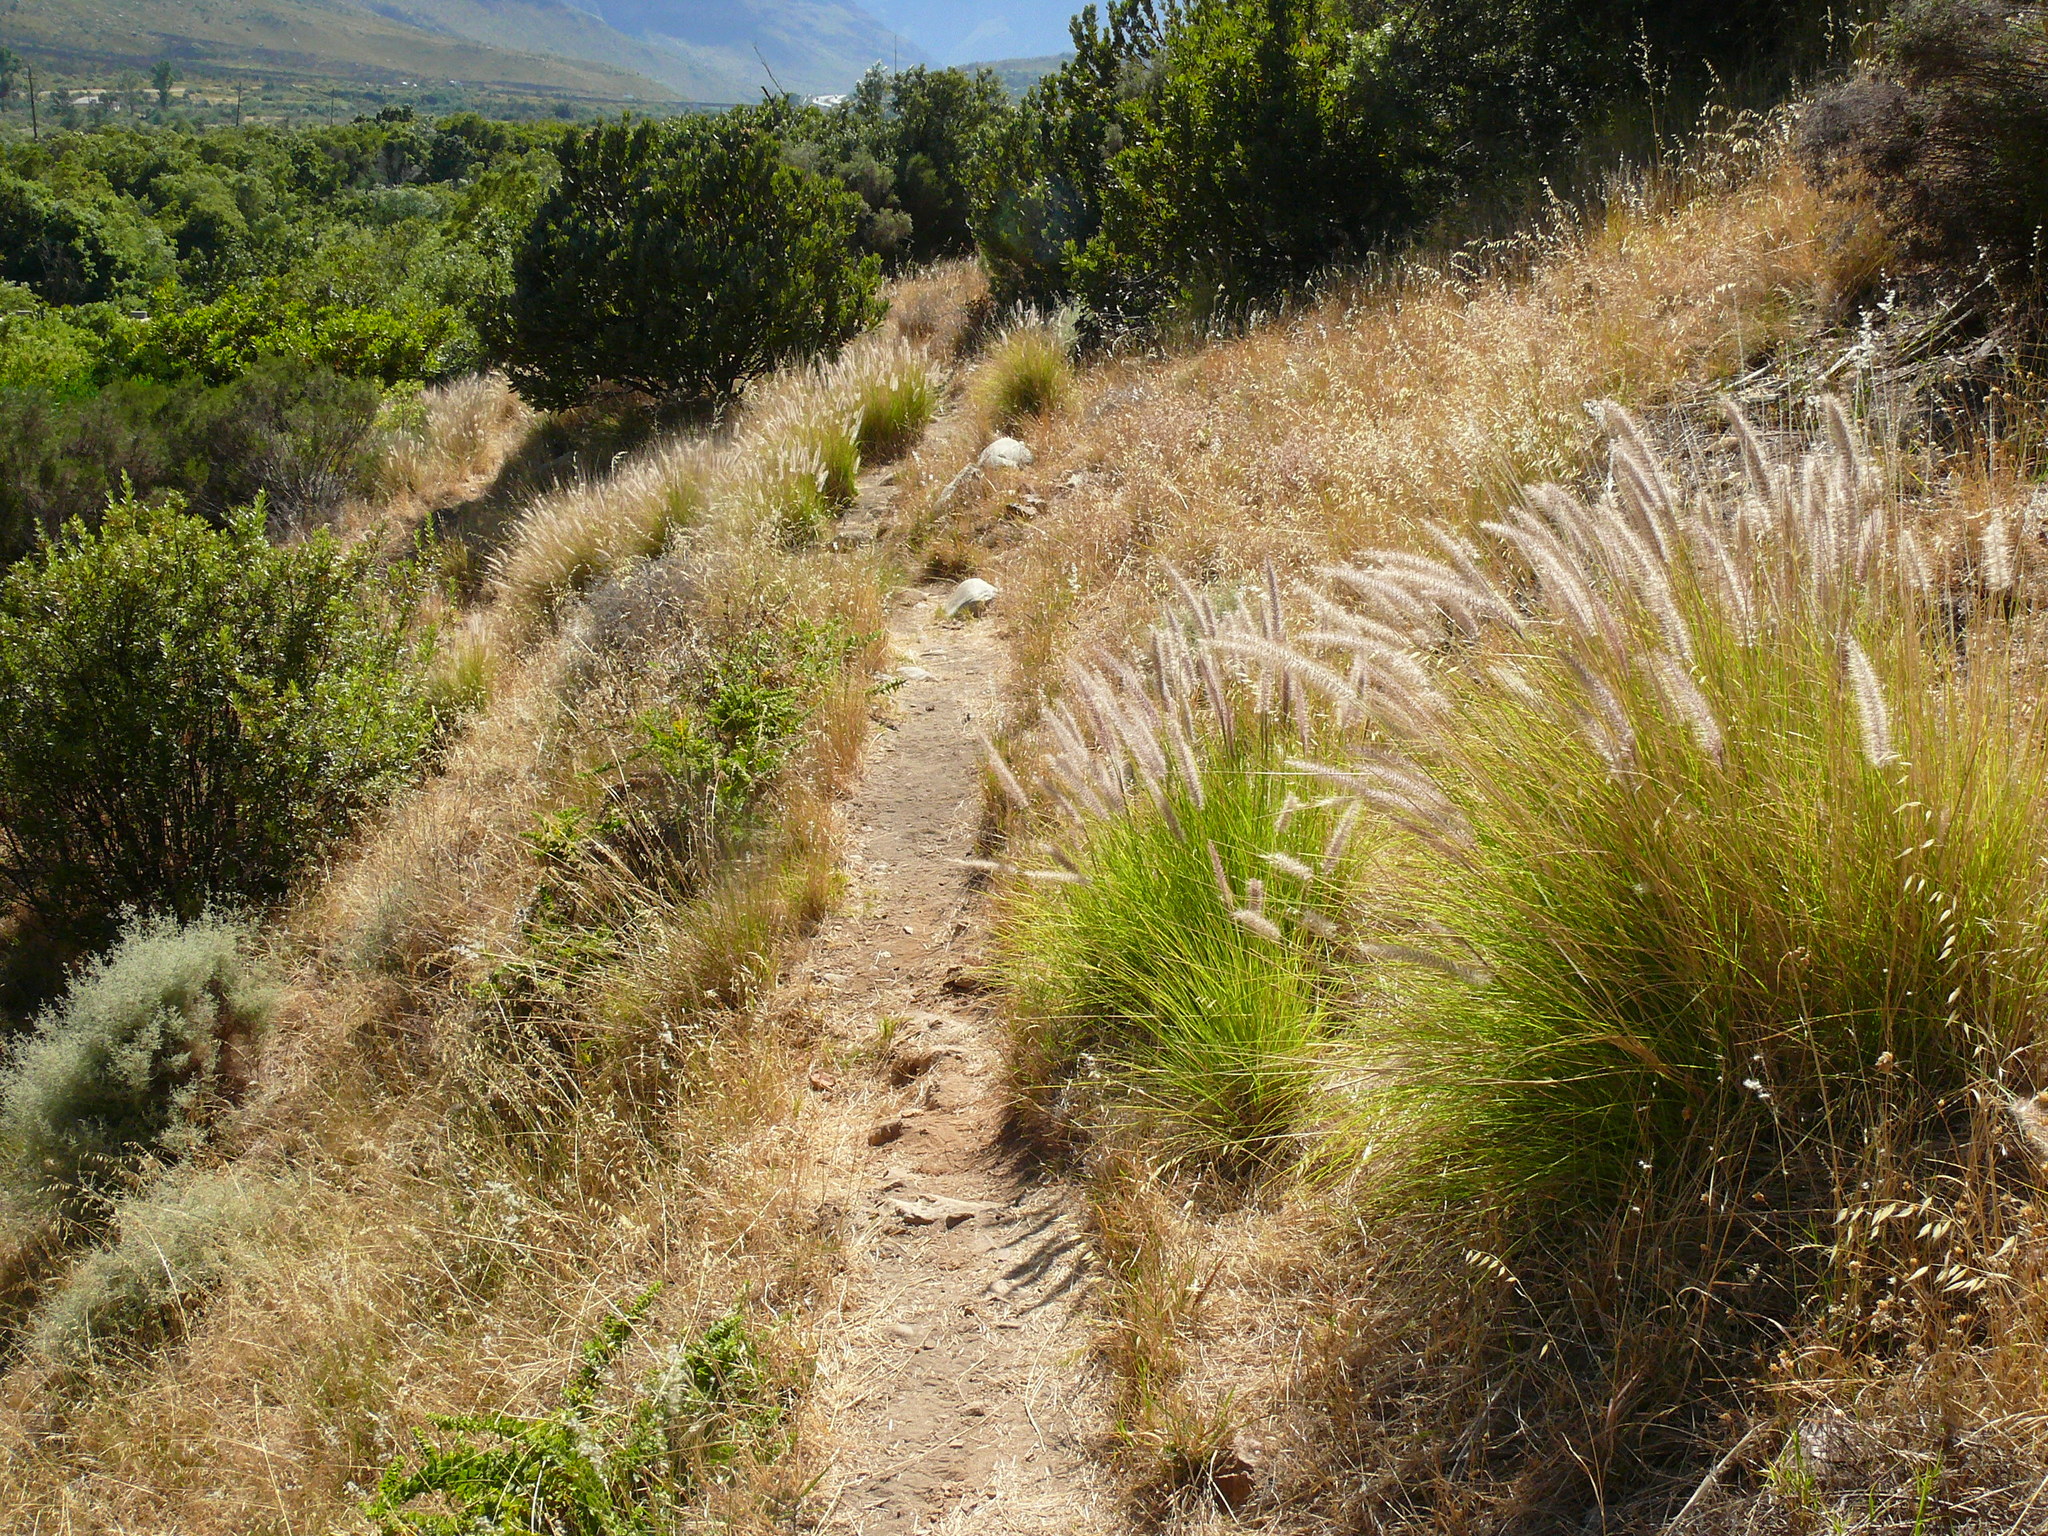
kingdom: Plantae
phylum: Tracheophyta
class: Liliopsida
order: Poales
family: Poaceae
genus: Cenchrus
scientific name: Cenchrus setaceus
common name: Crimson fountaingrass
